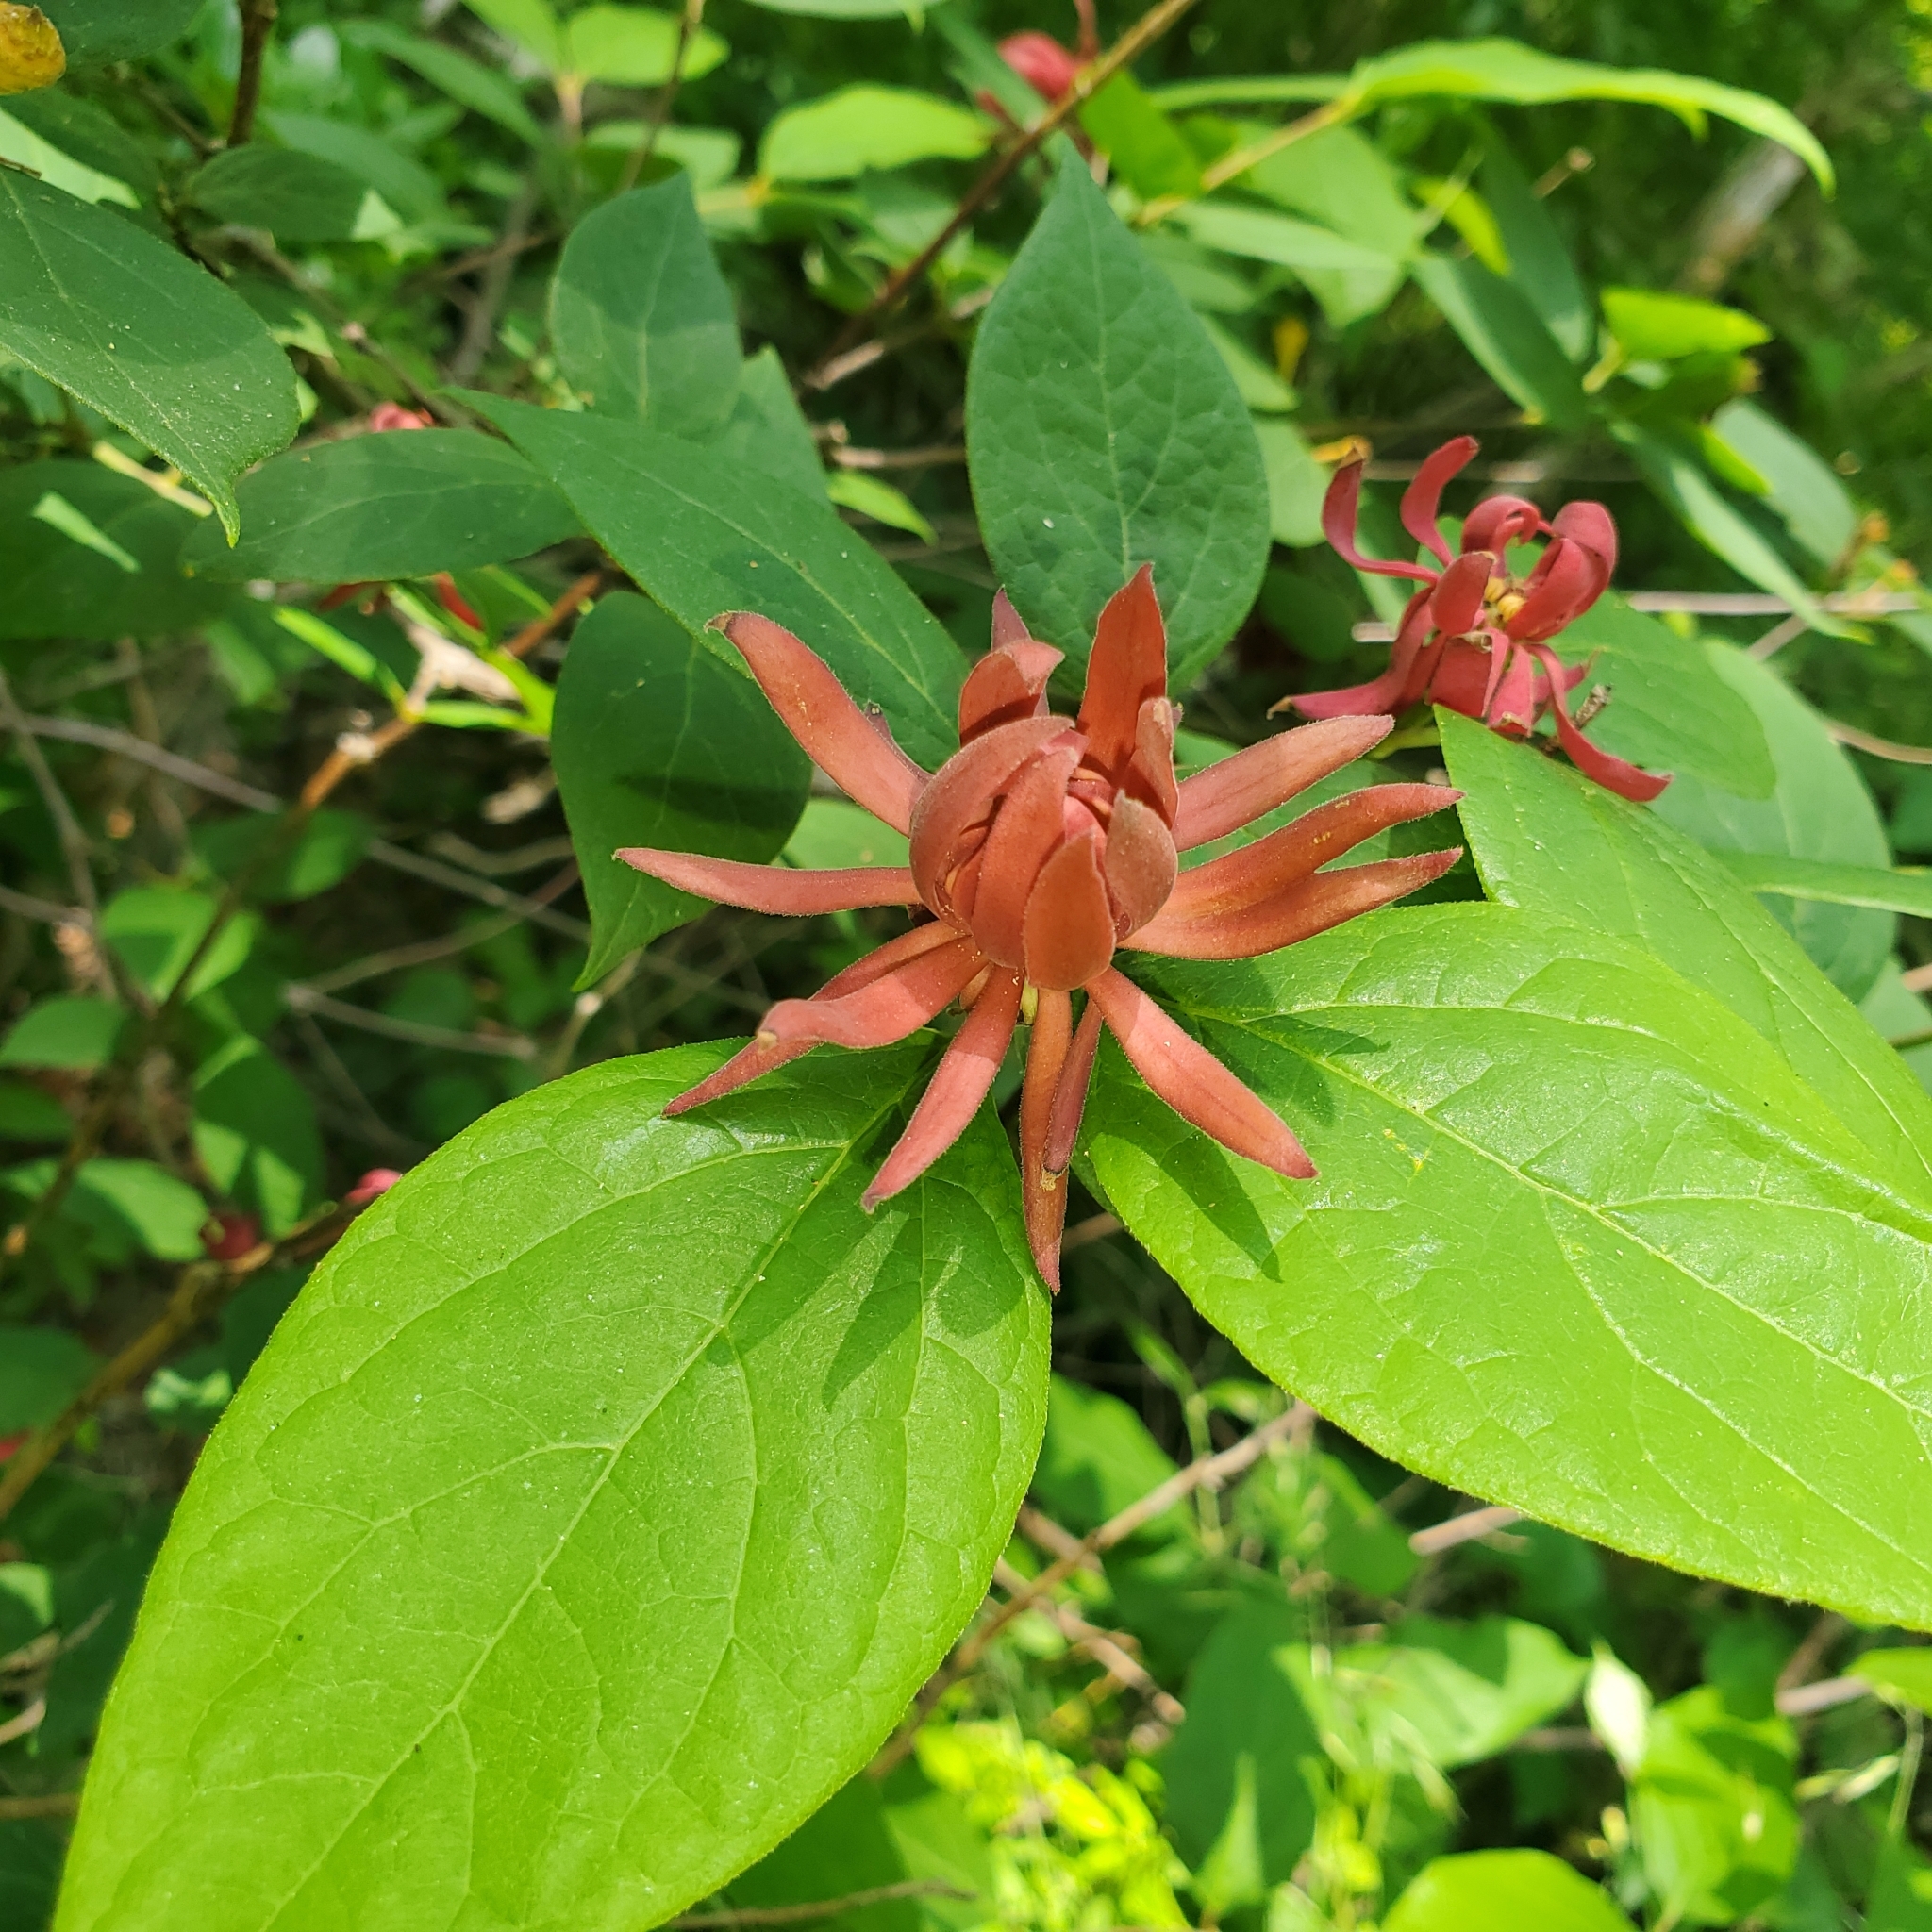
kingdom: Plantae
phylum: Tracheophyta
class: Magnoliopsida
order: Laurales
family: Calycanthaceae
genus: Calycanthus
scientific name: Calycanthus floridus
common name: Carolina-allspice
